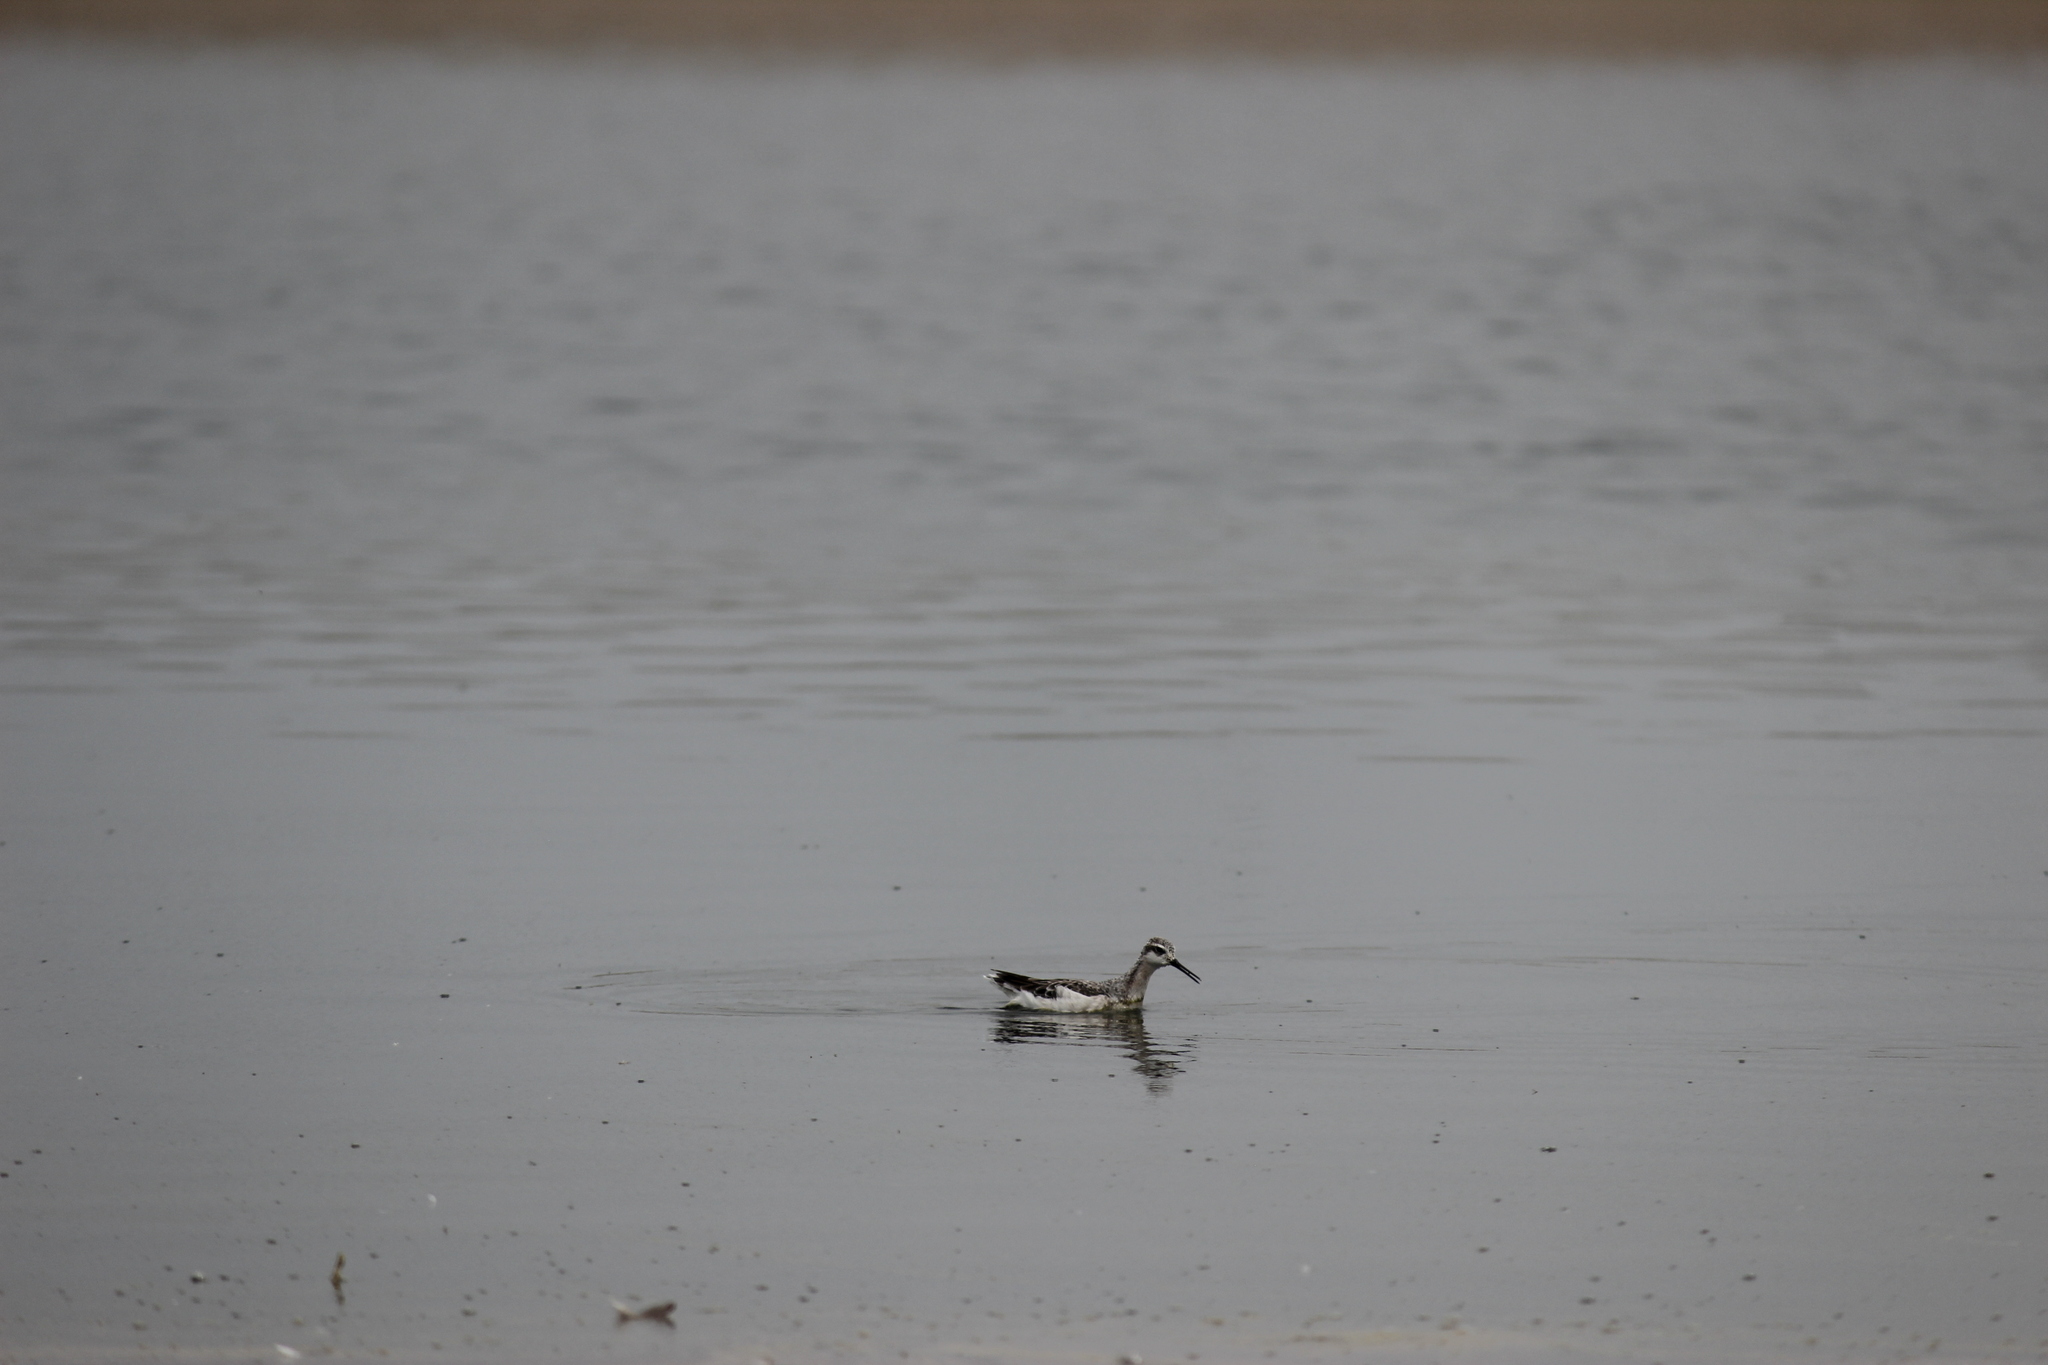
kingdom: Animalia
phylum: Chordata
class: Aves
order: Charadriiformes
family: Scolopacidae
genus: Phalaropus
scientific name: Phalaropus tricolor
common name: Wilson's phalarope
